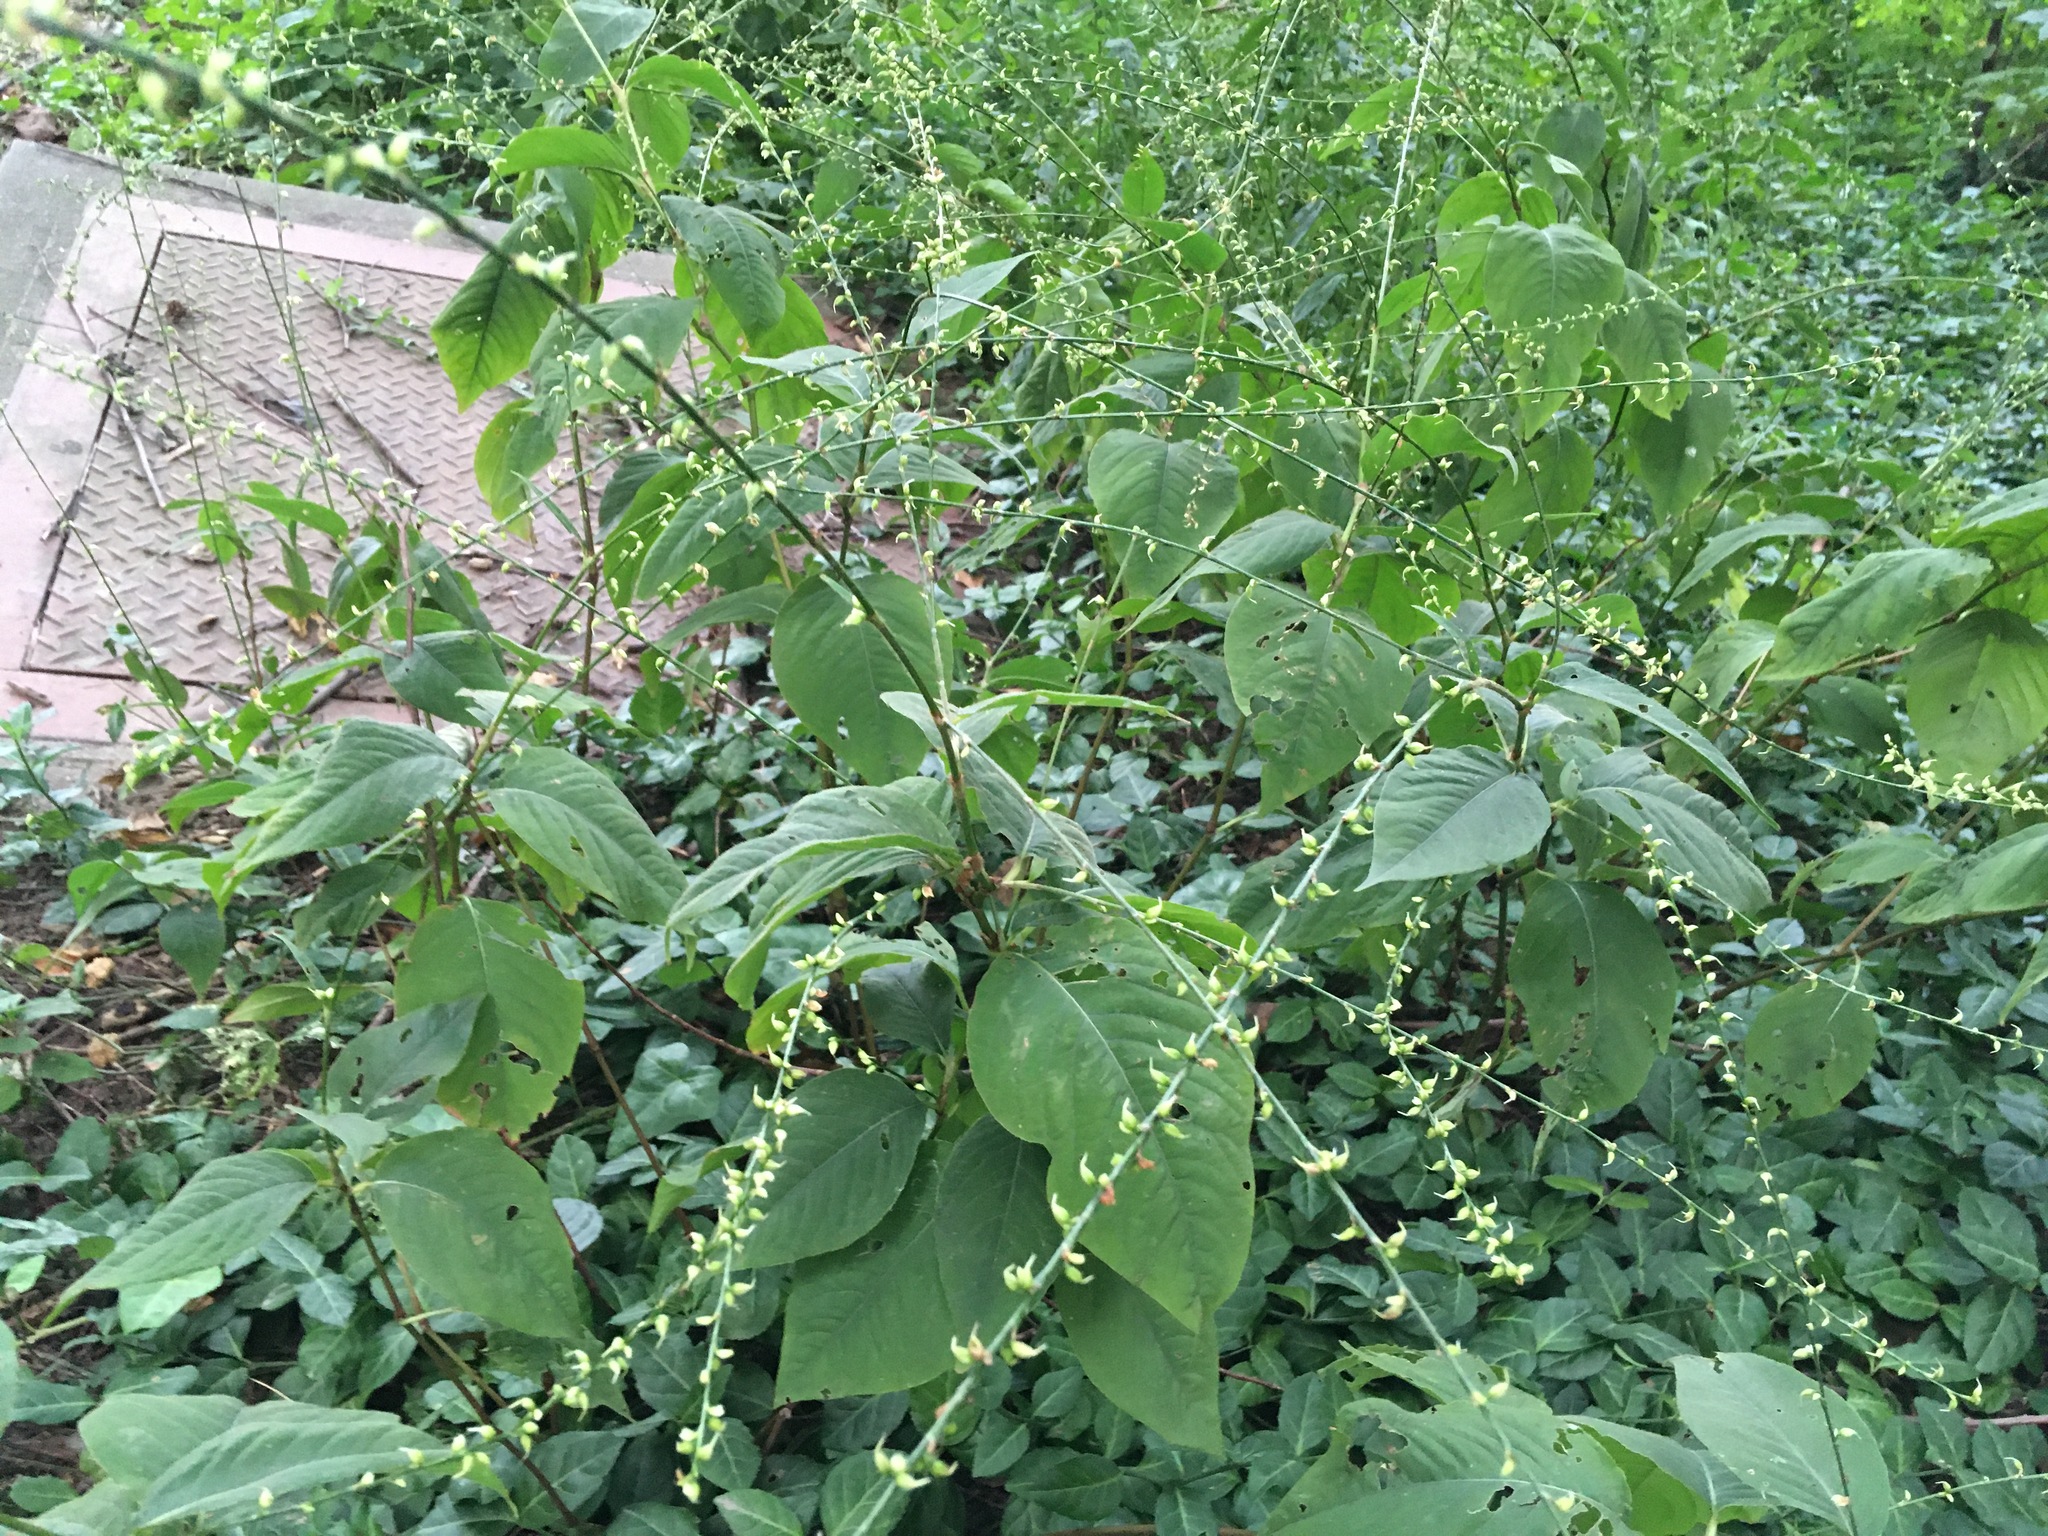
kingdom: Plantae
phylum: Tracheophyta
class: Magnoliopsida
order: Caryophyllales
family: Polygonaceae
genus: Persicaria
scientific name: Persicaria virginiana
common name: Jumpseed
